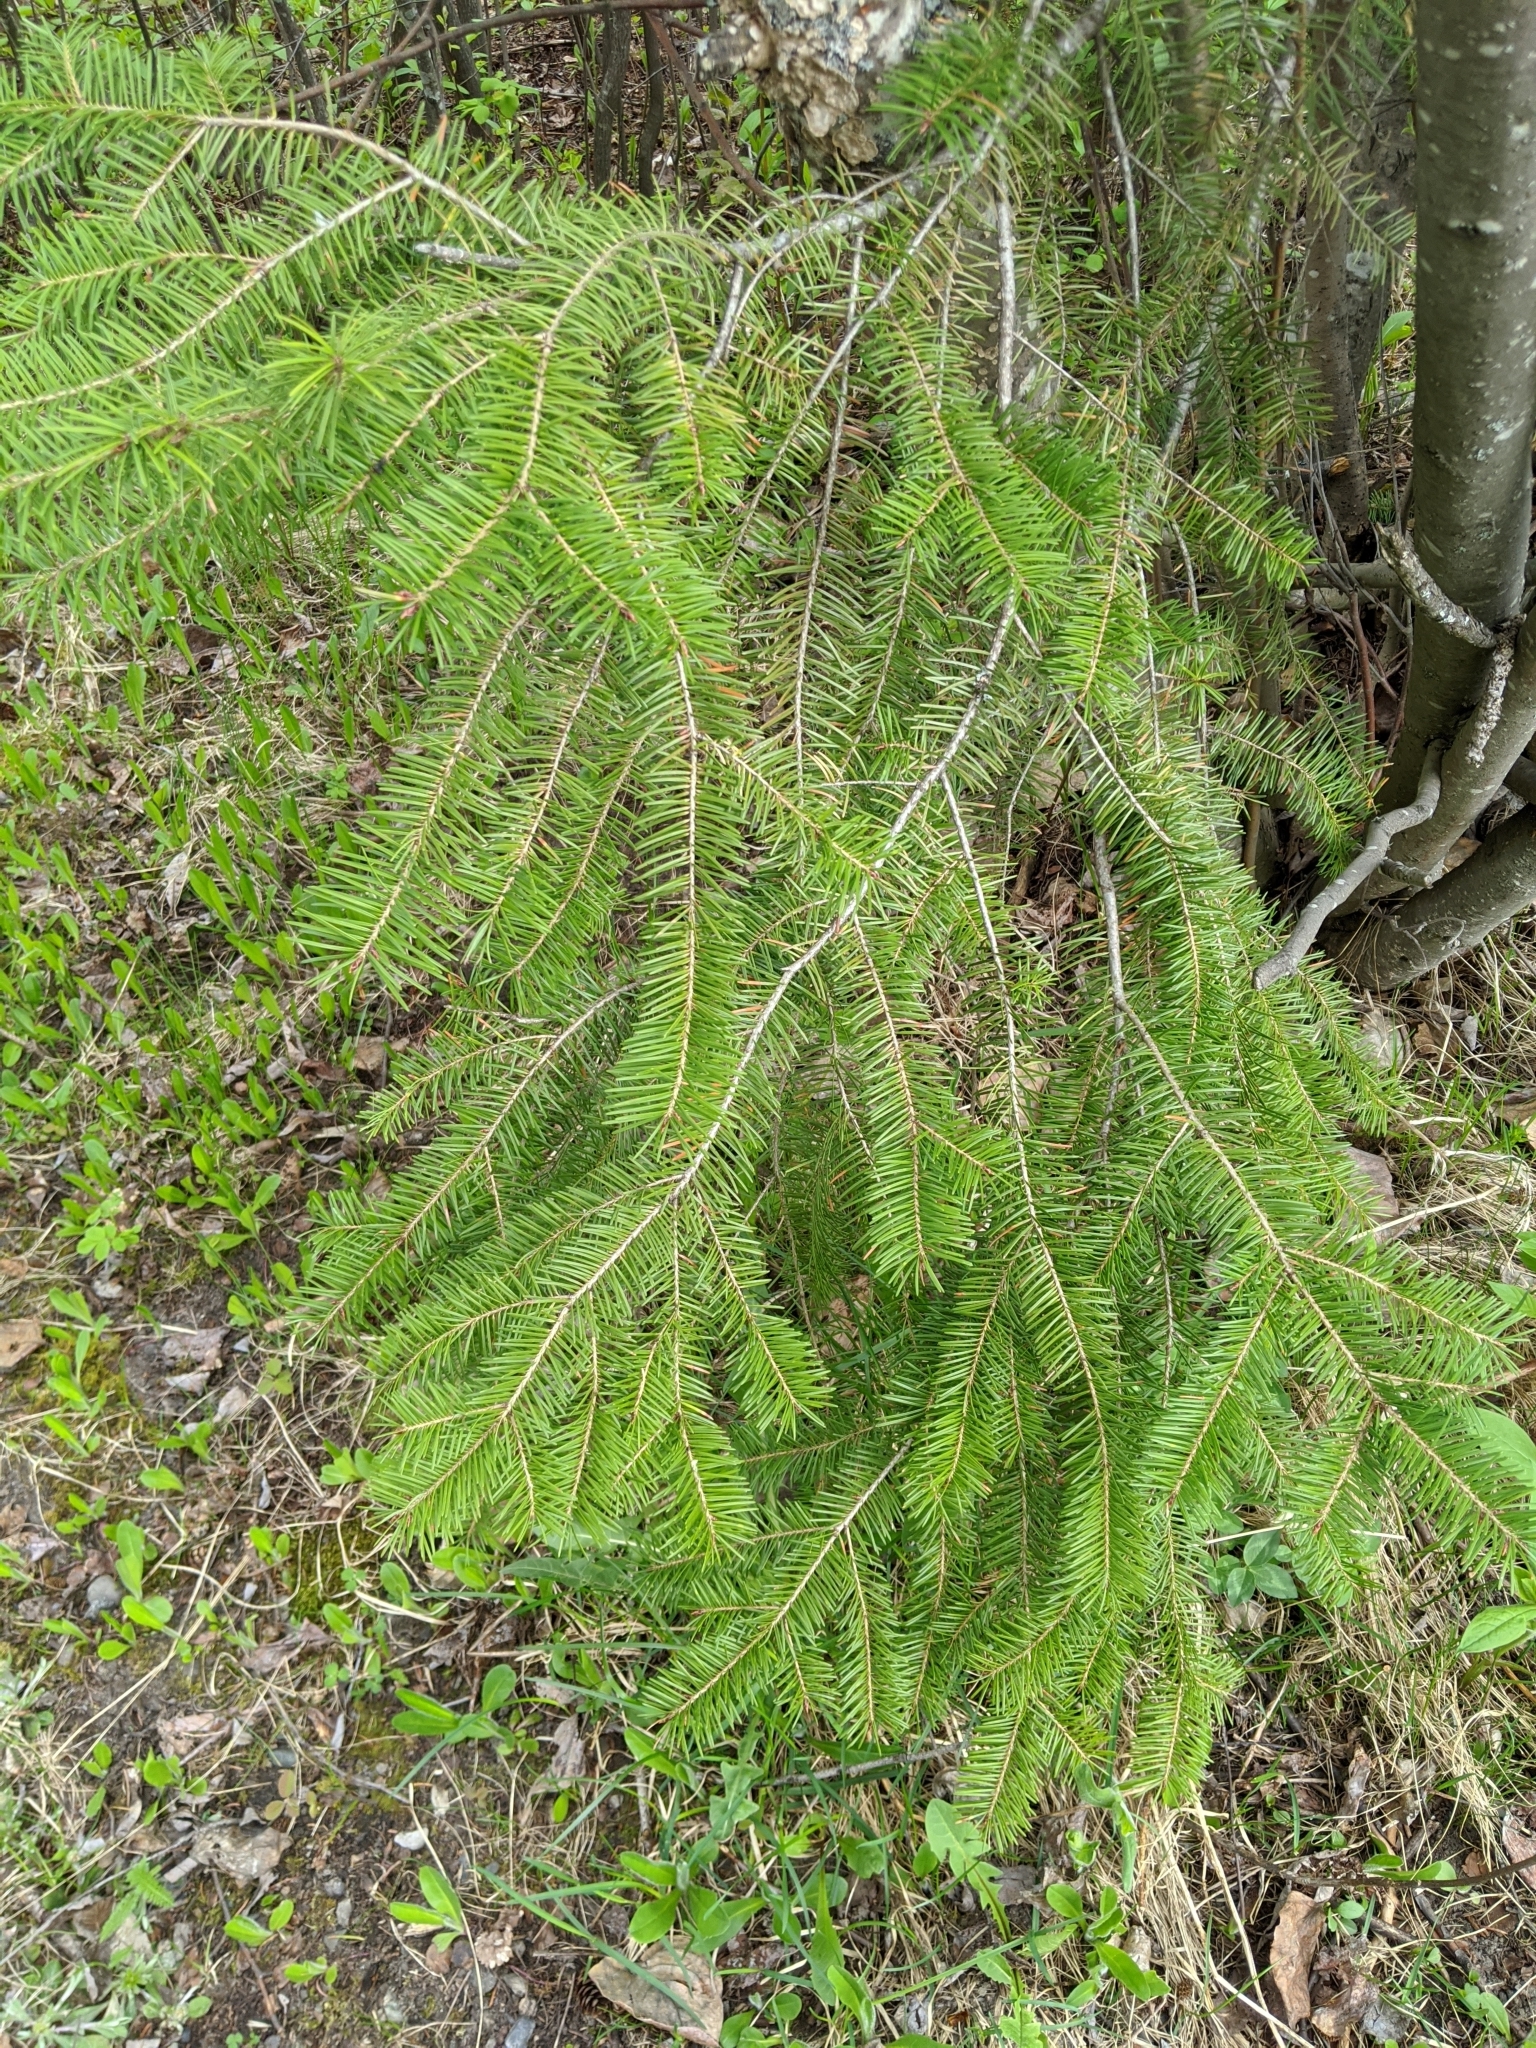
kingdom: Plantae
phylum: Tracheophyta
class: Pinopsida
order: Pinales
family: Pinaceae
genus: Pseudotsuga
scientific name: Pseudotsuga menziesii
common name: Douglas fir
